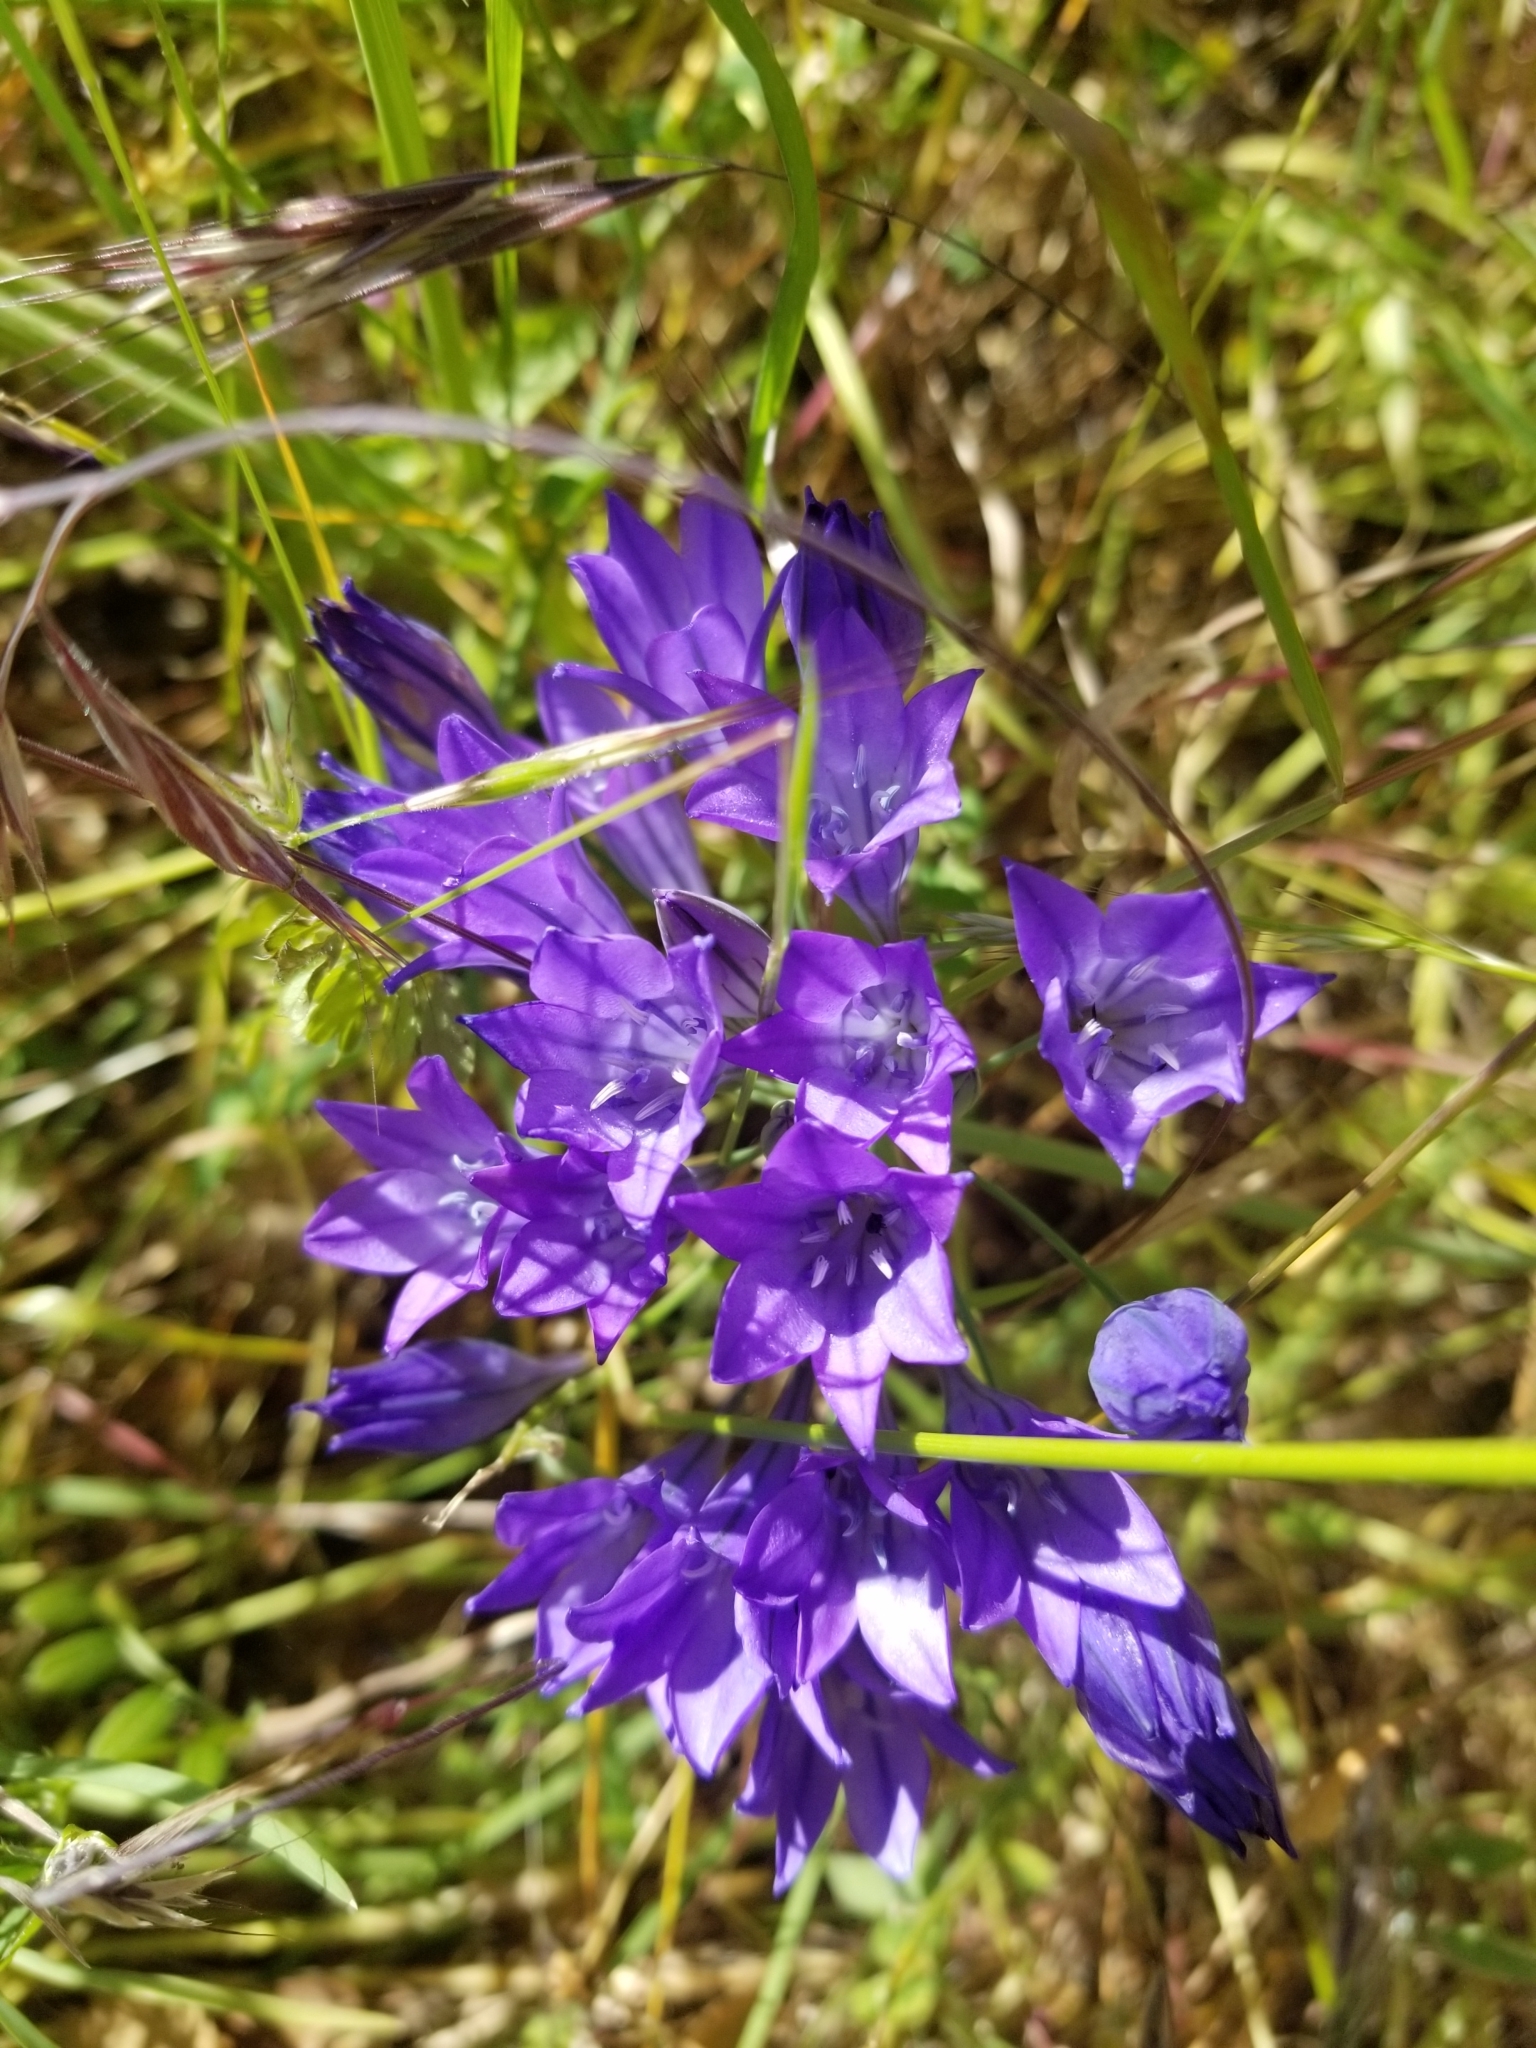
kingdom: Plantae
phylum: Tracheophyta
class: Liliopsida
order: Asparagales
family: Asparagaceae
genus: Triteleia
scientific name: Triteleia laxa
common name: Triplet-lily
